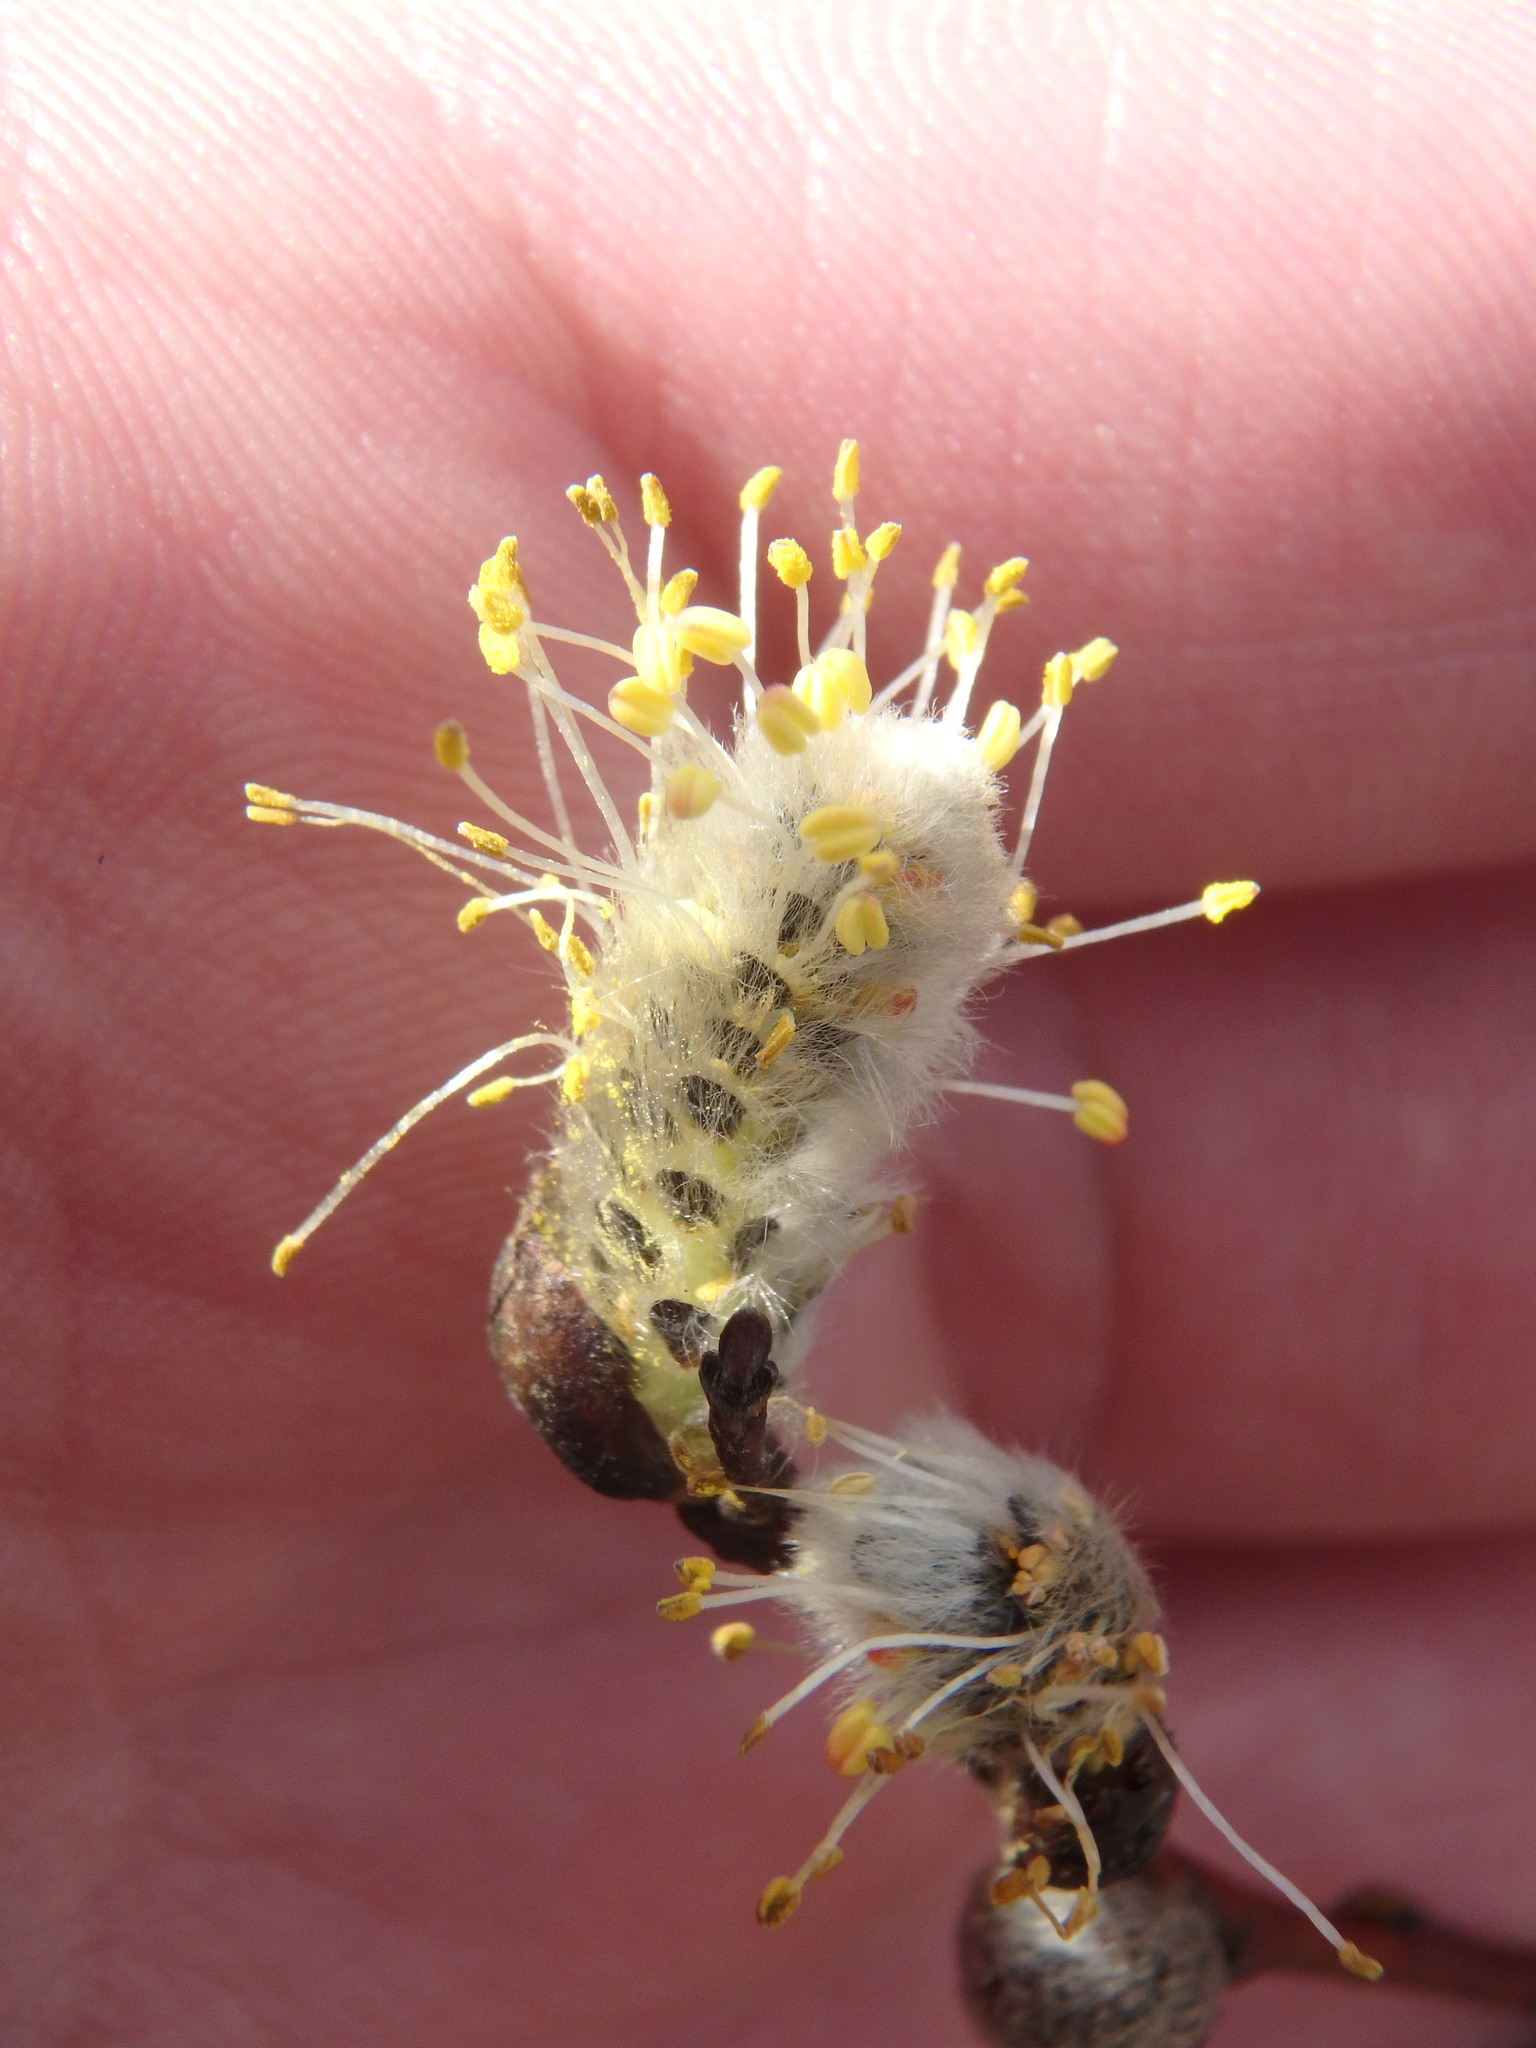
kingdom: Plantae
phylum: Tracheophyta
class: Magnoliopsida
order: Malpighiales
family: Salicaceae
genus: Salix
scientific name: Salix discolor
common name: Glaucous willow
